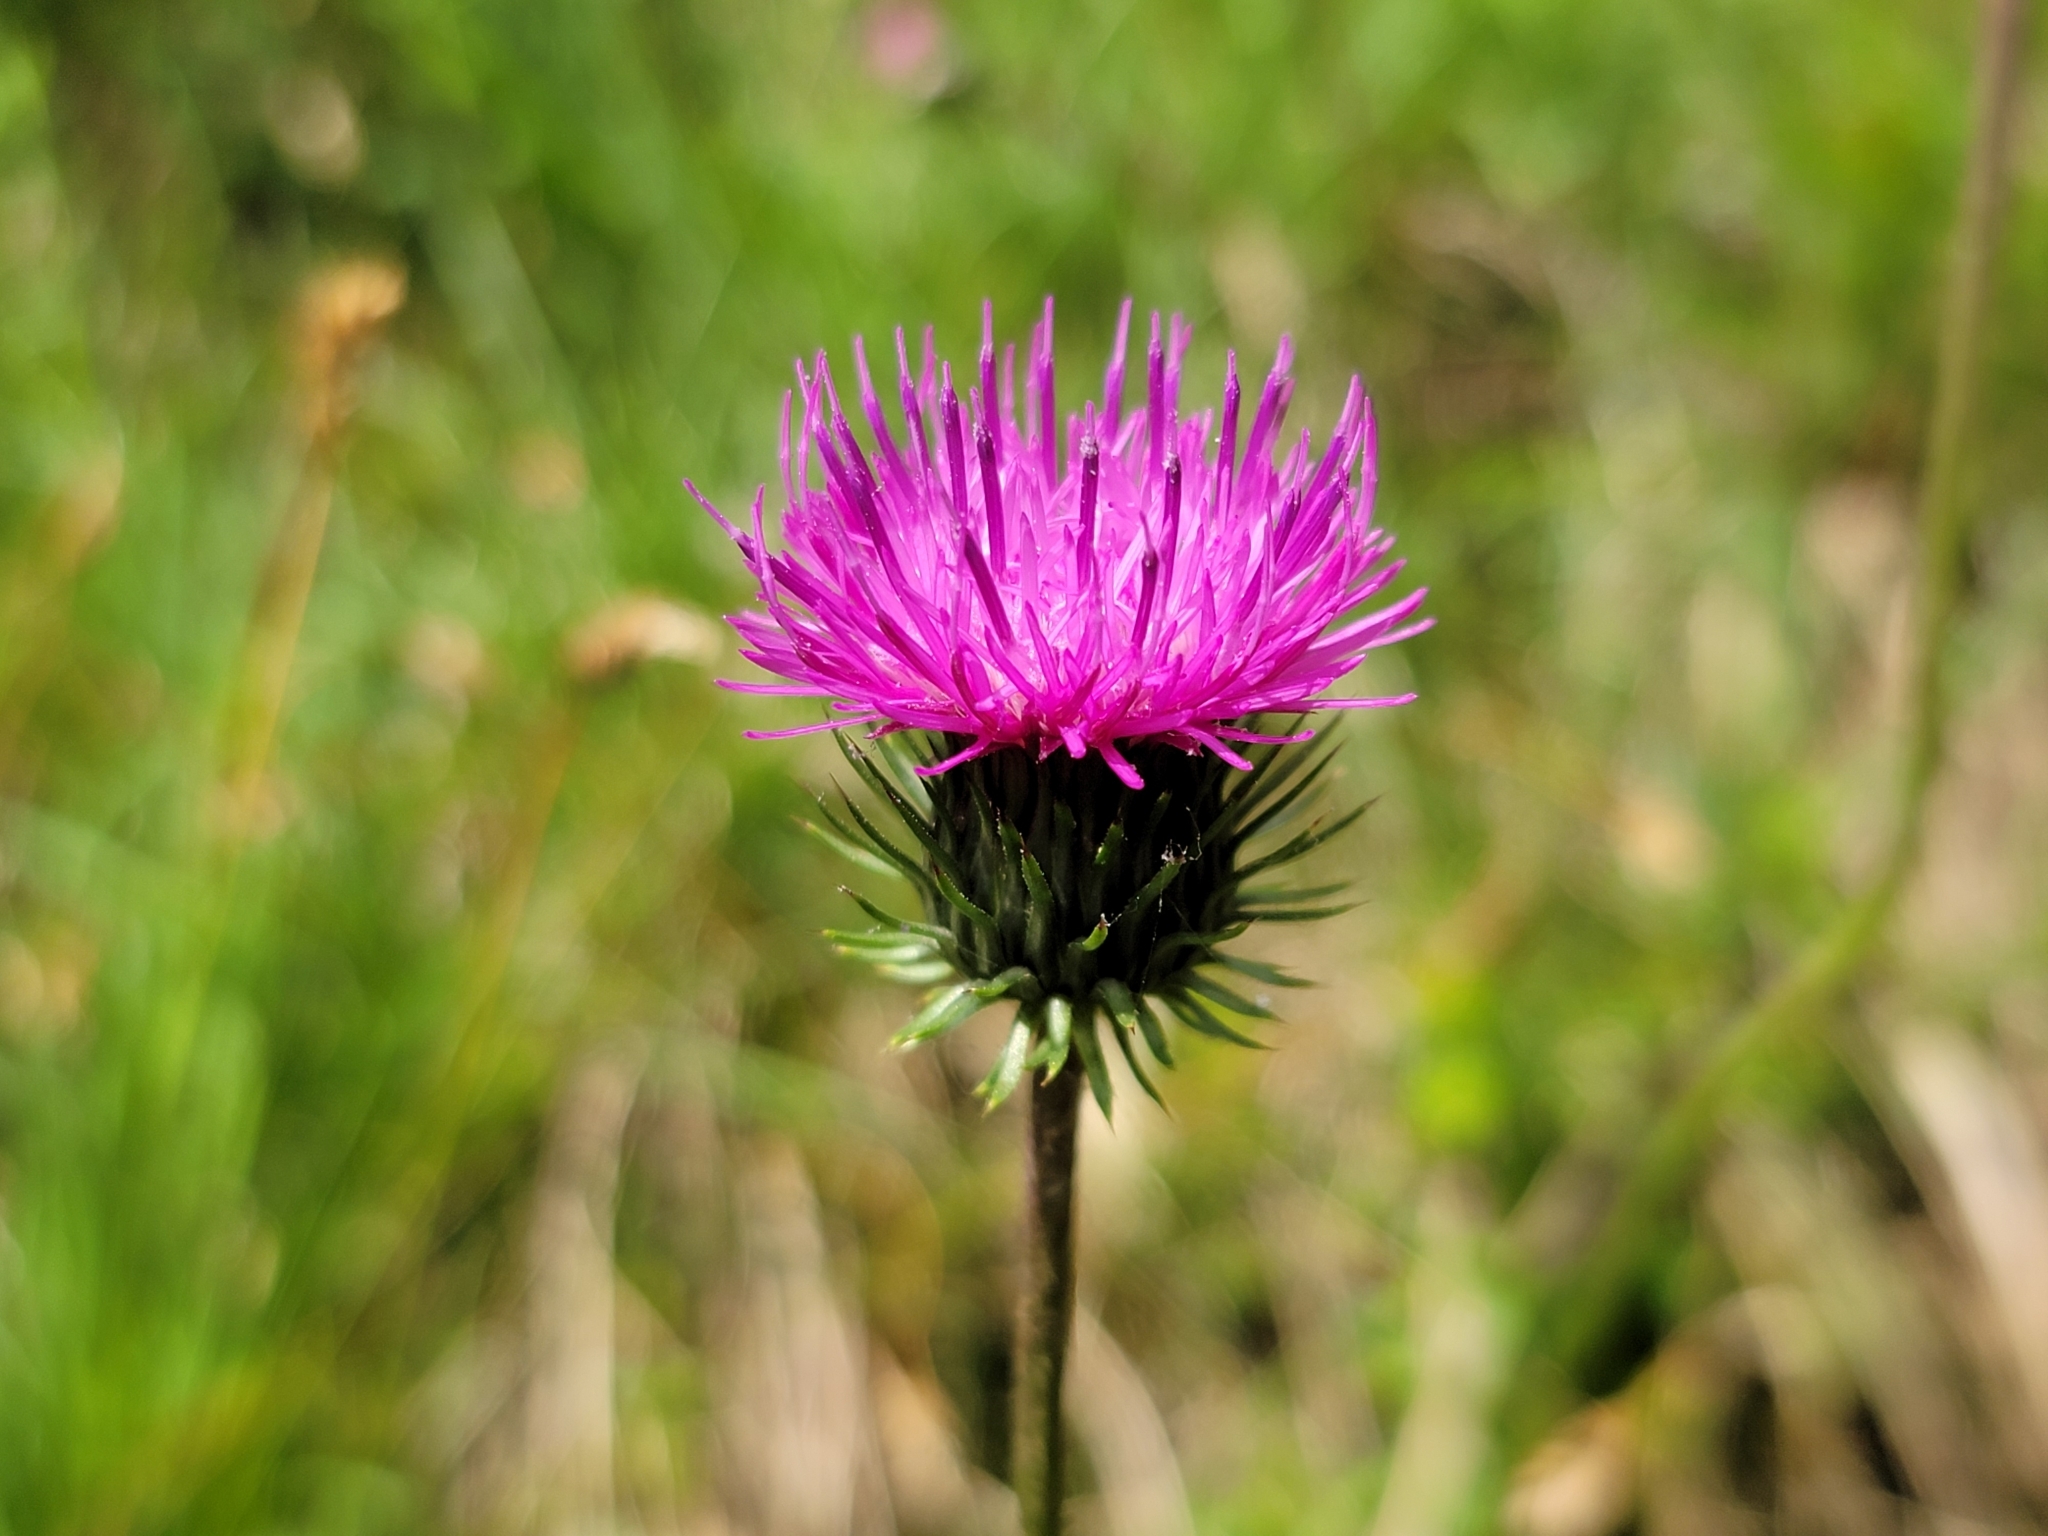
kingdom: Plantae
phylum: Tracheophyta
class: Magnoliopsida
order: Asterales
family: Asteraceae
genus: Carduus
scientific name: Carduus defloratus
